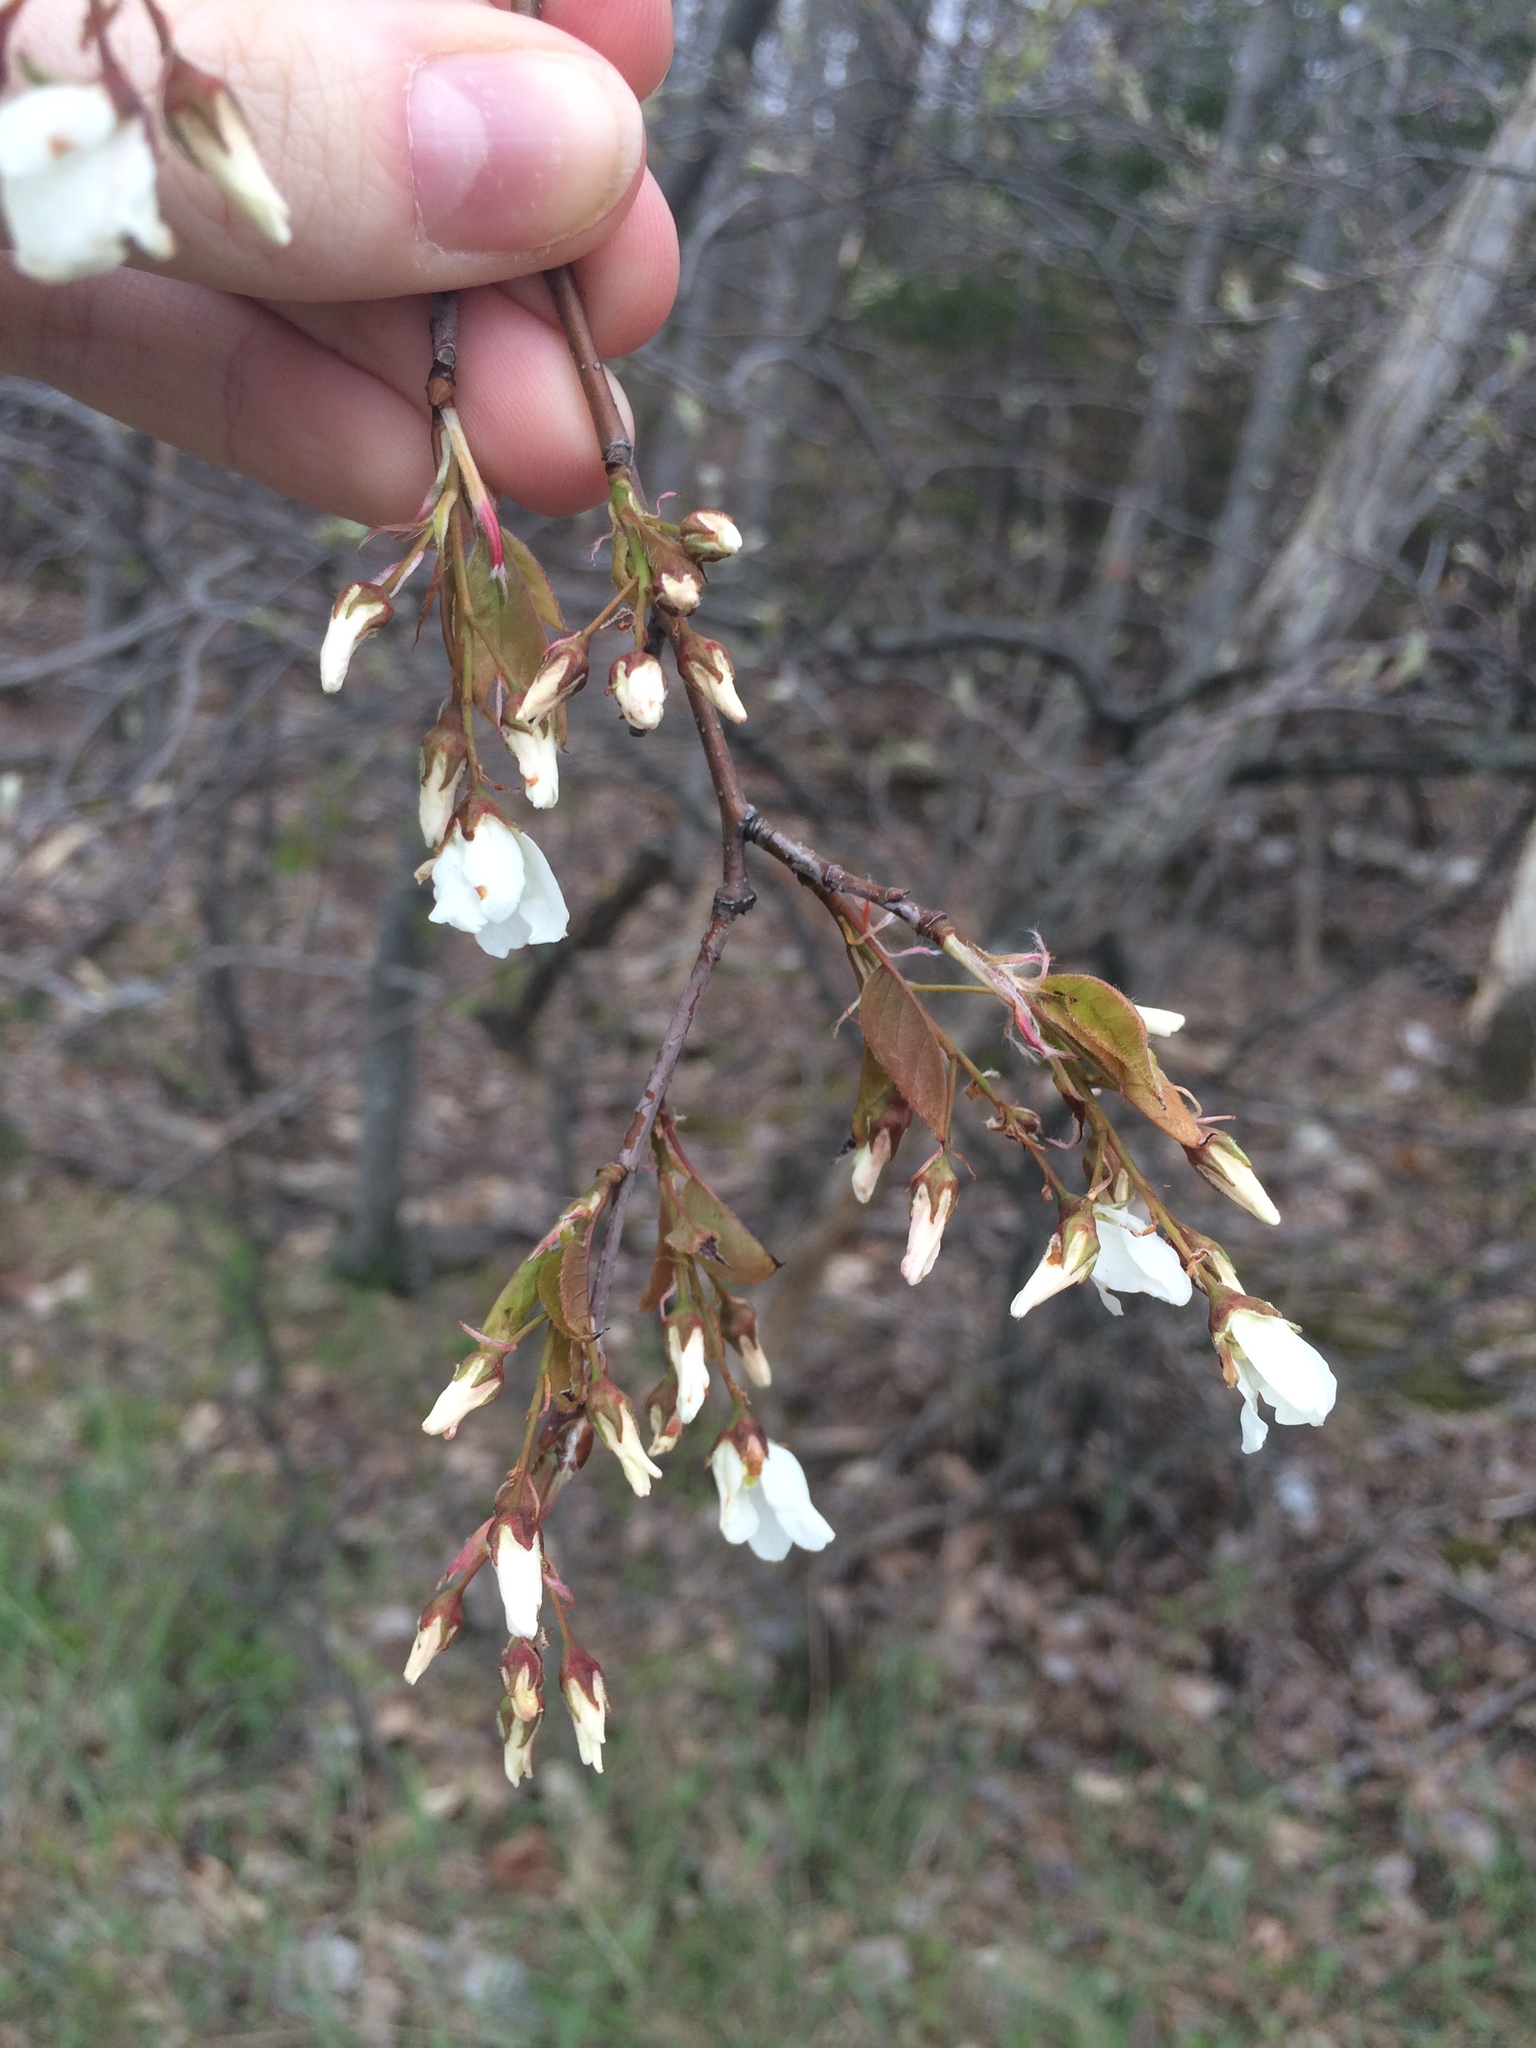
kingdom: Plantae
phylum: Tracheophyta
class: Magnoliopsida
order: Rosales
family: Rosaceae
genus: Amelanchier
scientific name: Amelanchier laevis
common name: Allegheny serviceberry
